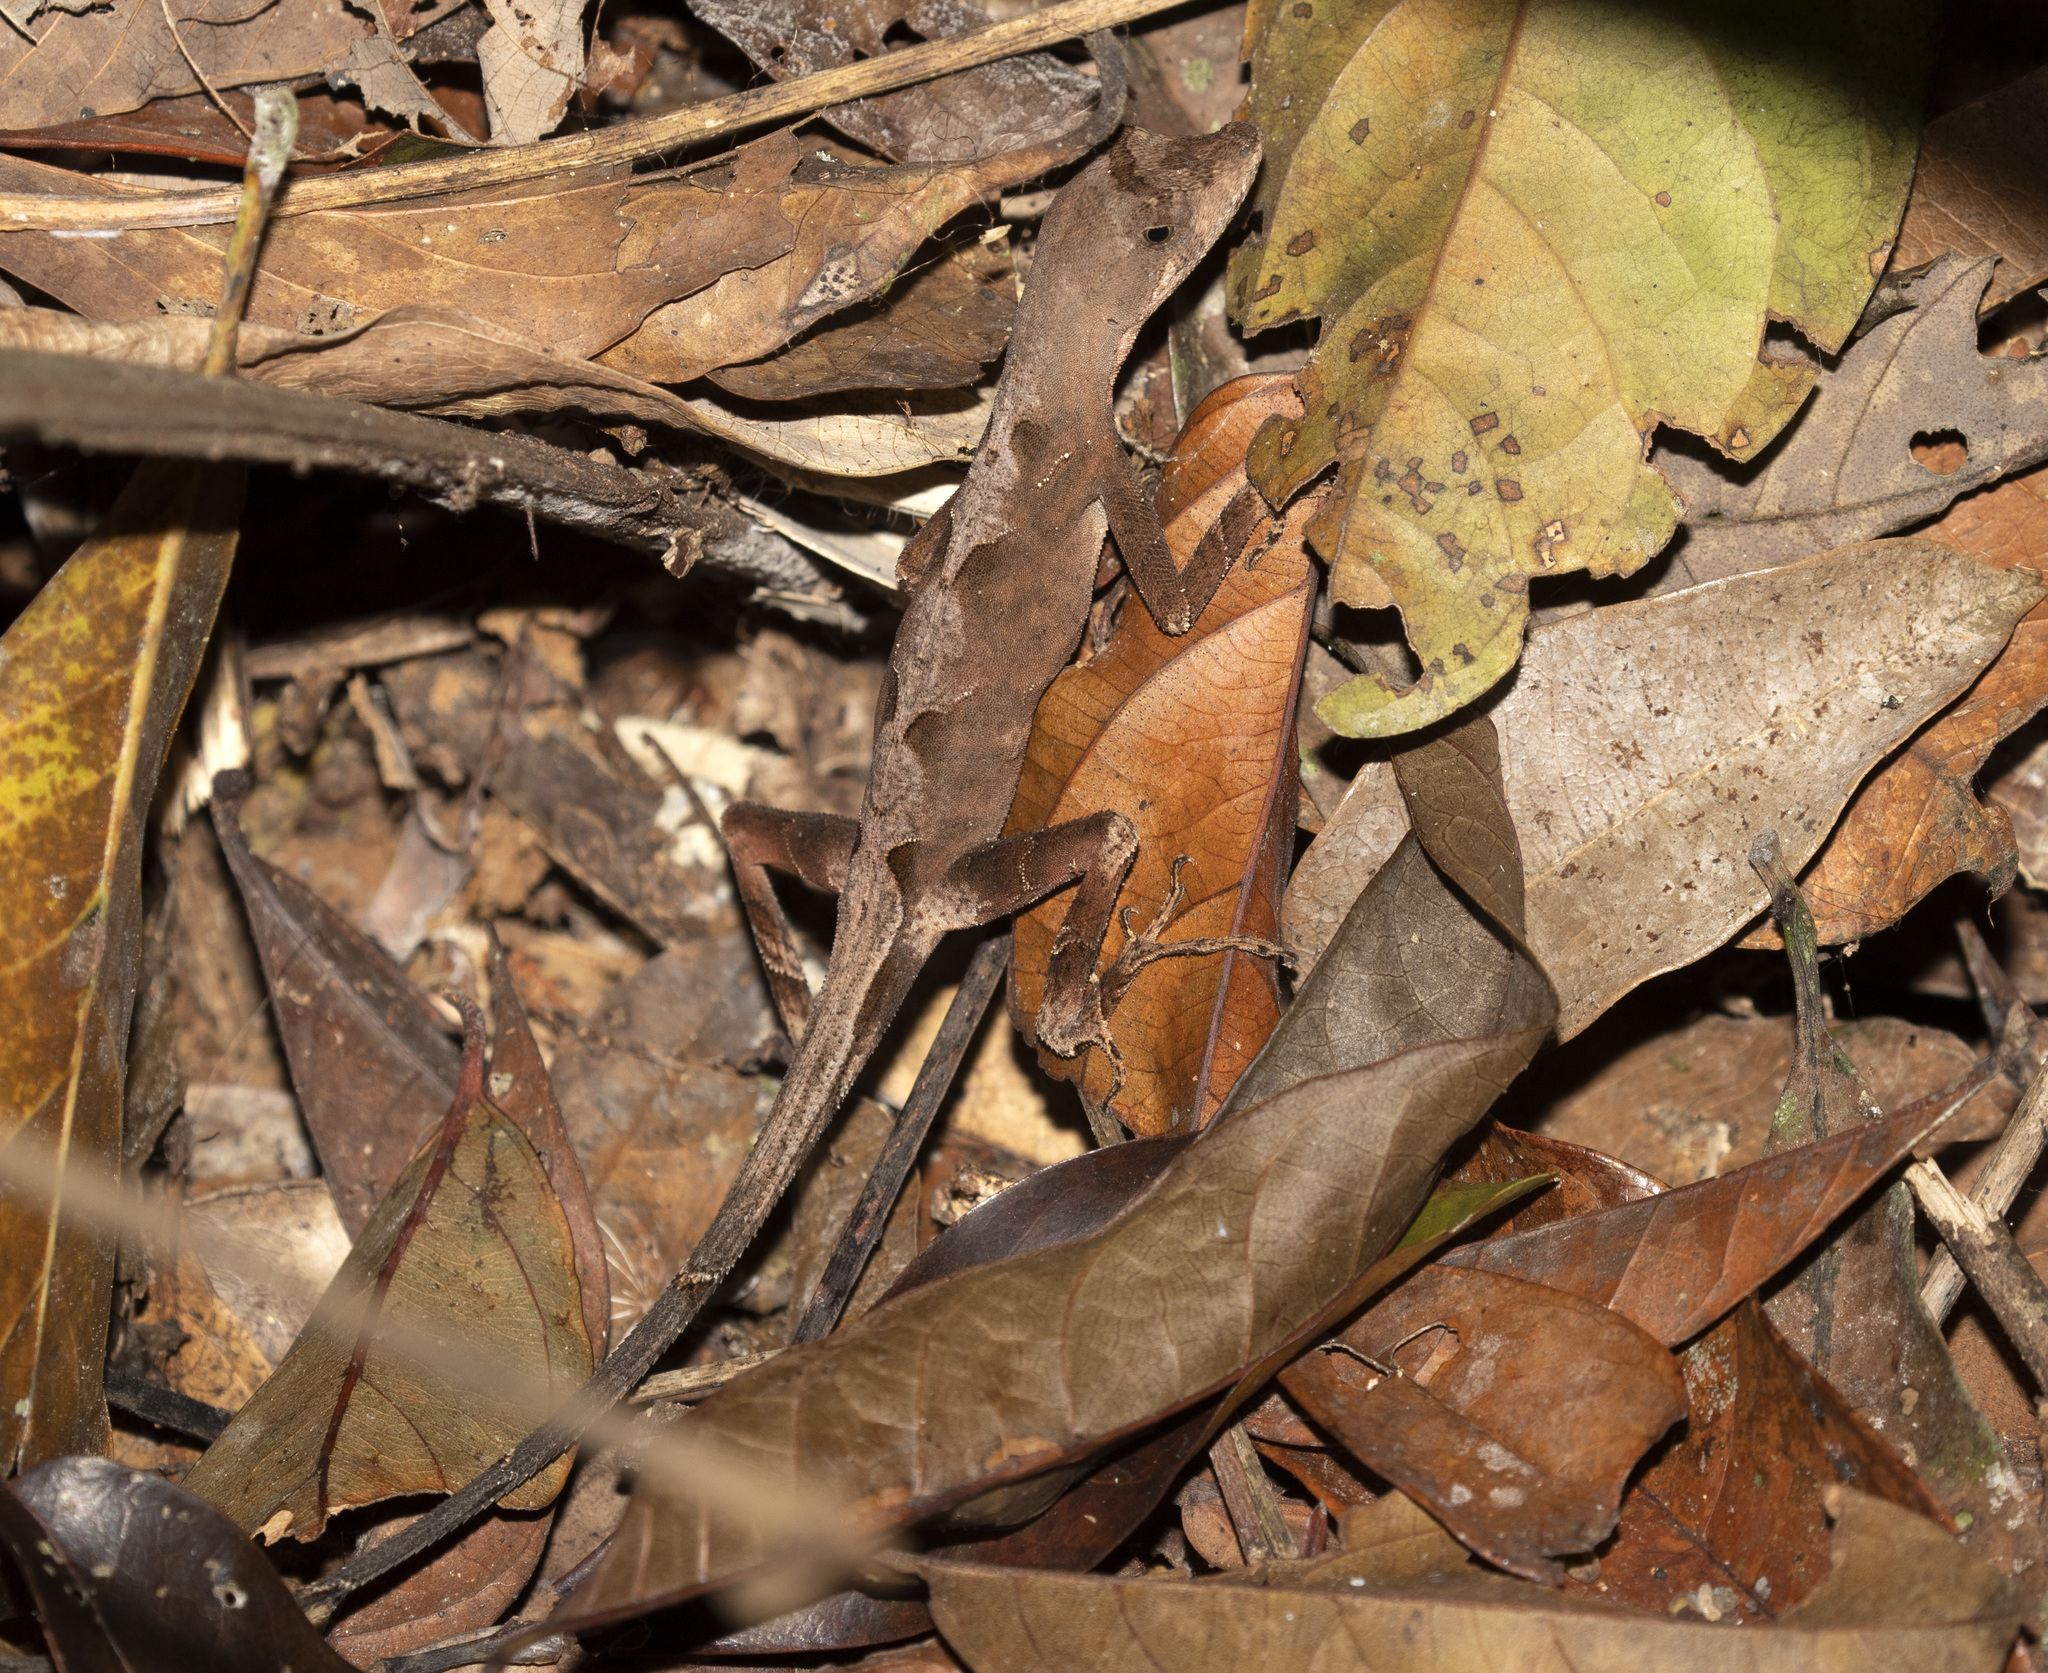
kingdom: Animalia
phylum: Chordata
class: Squamata
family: Dactyloidae
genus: Anolis
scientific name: Anolis tandai
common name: Tandai’s anole
